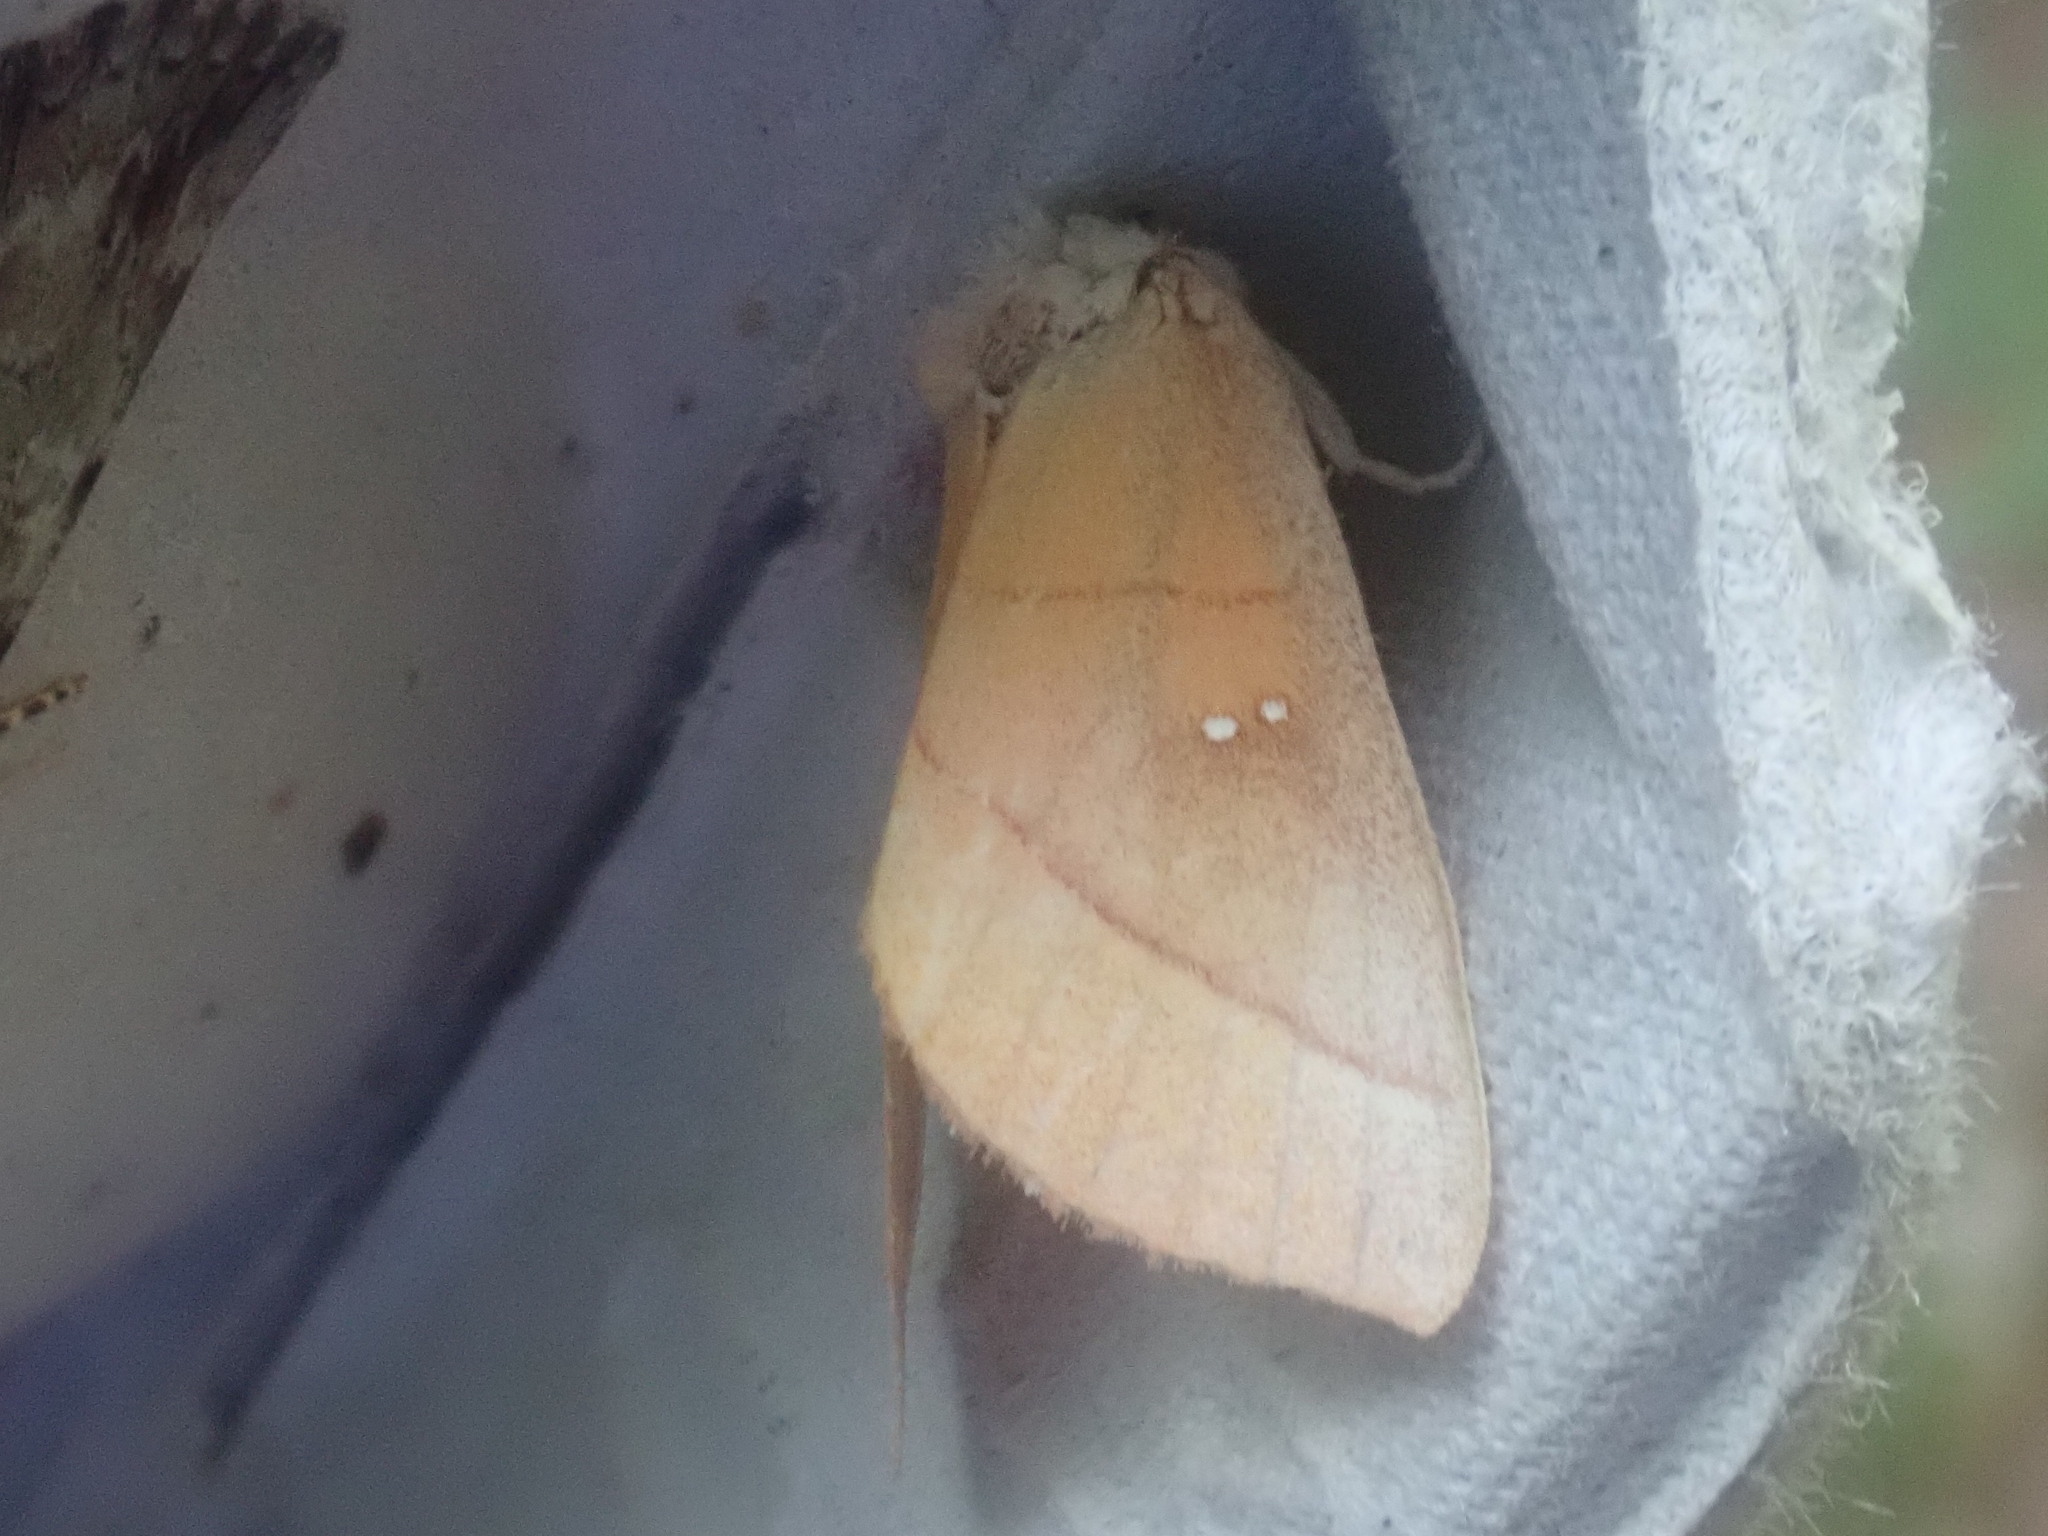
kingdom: Animalia
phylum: Arthropoda
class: Insecta
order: Lepidoptera
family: Notodontidae
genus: Nadata
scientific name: Nadata gibbosa
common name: White-dotted prominent
